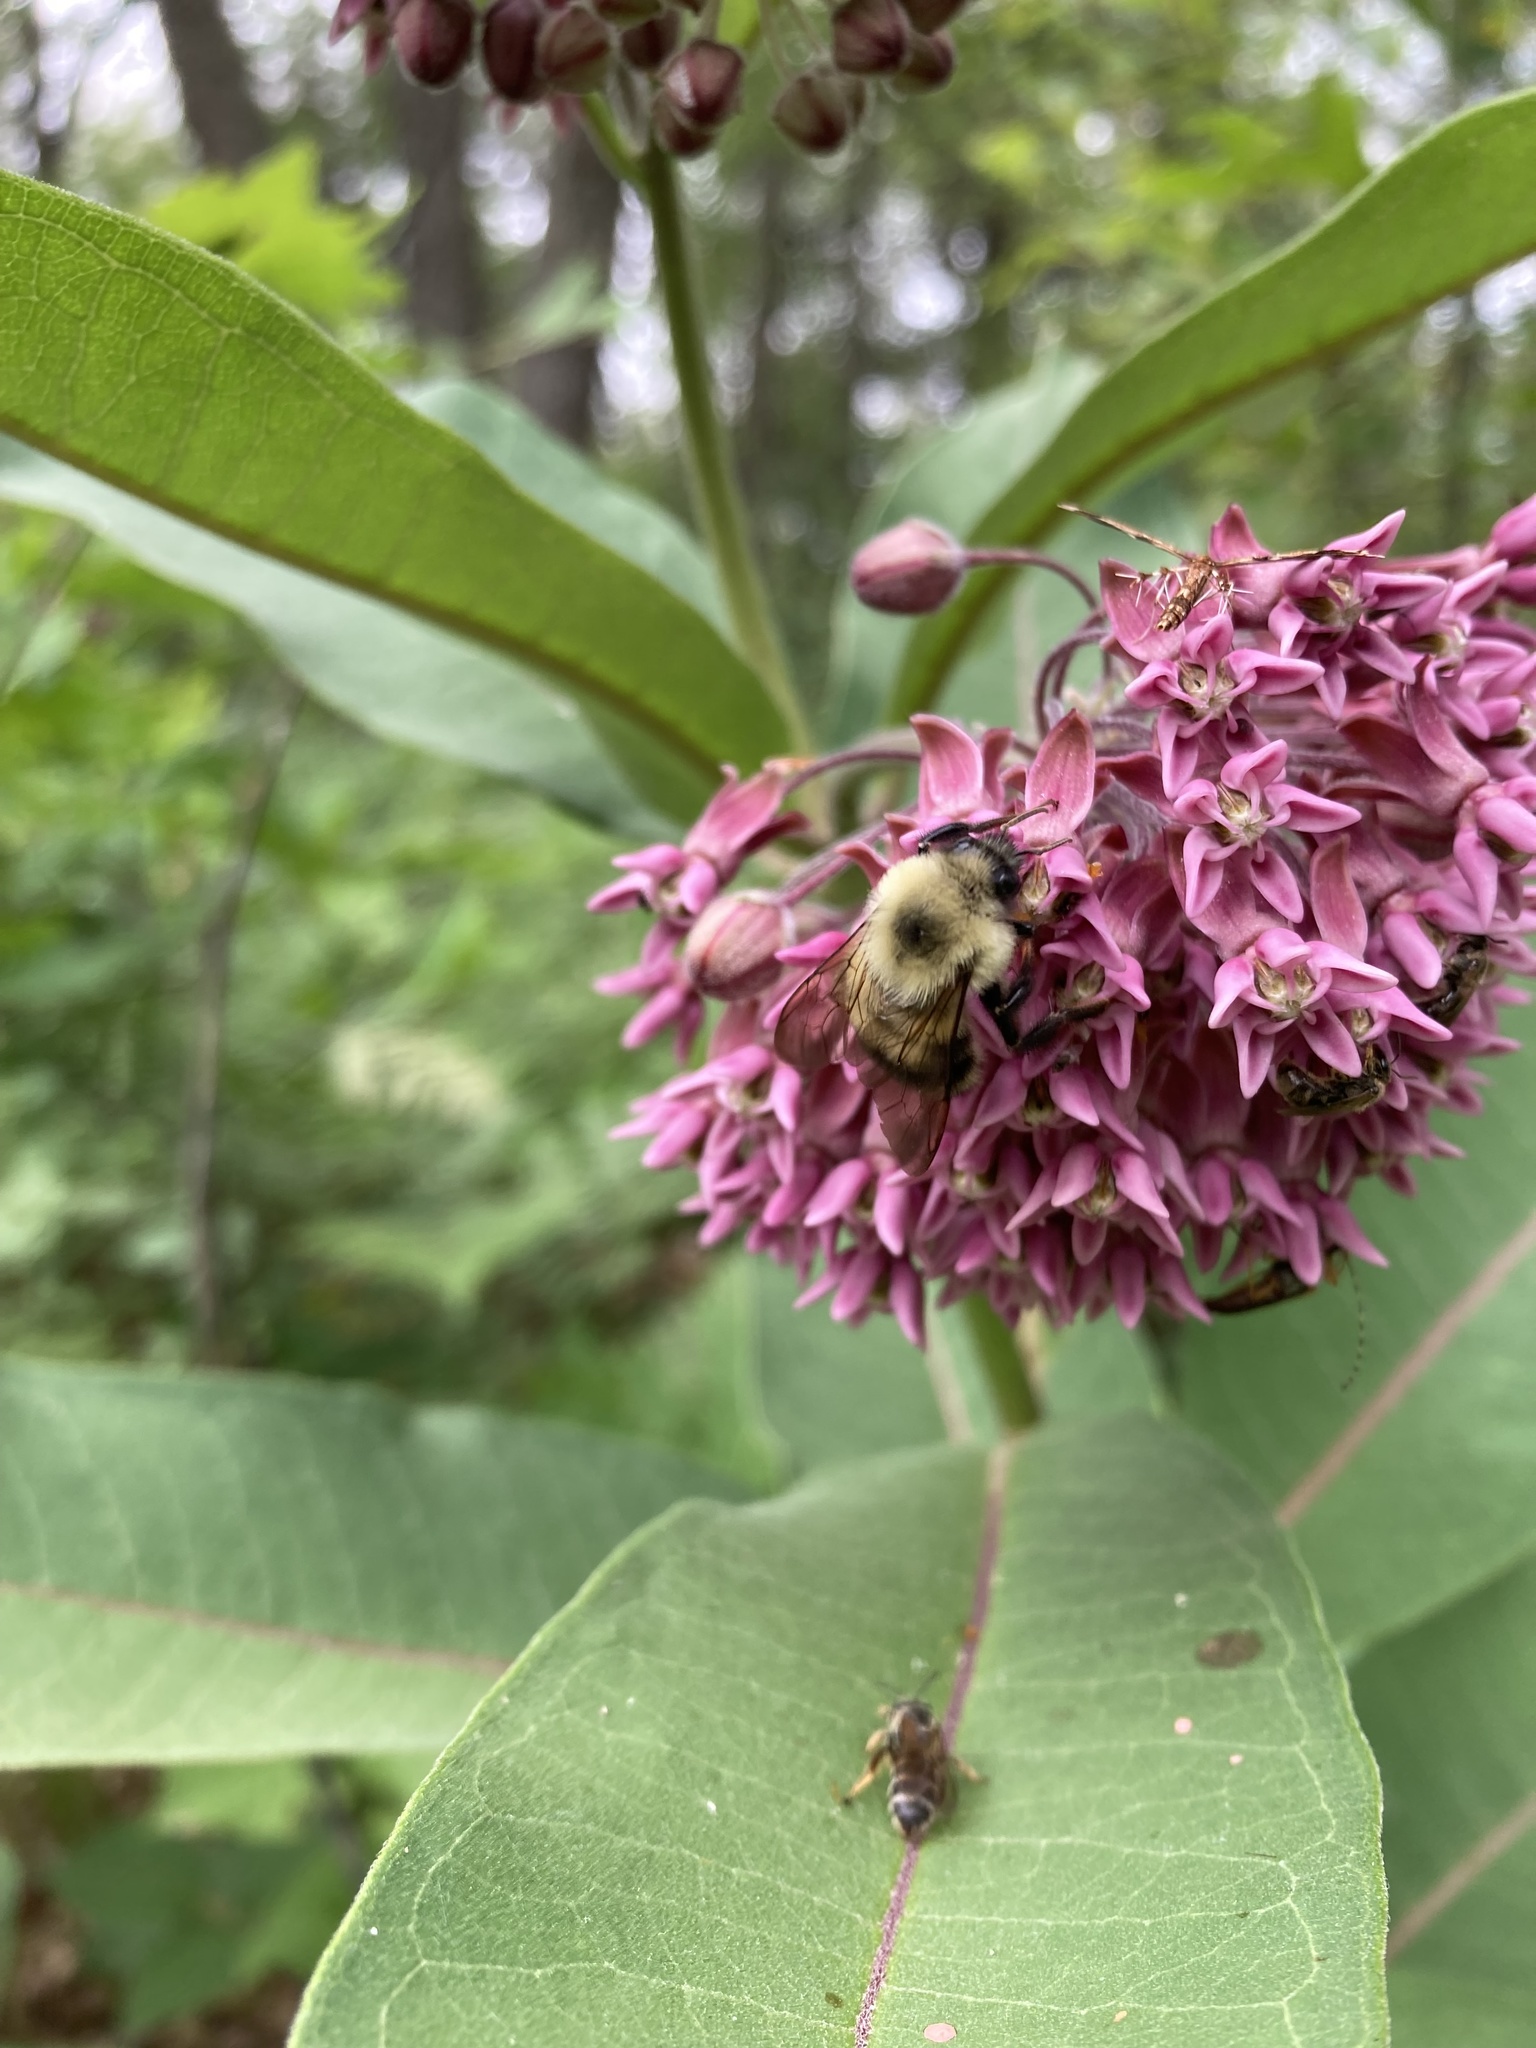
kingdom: Animalia
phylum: Arthropoda
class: Insecta
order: Hymenoptera
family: Apidae
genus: Bombus
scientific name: Bombus bimaculatus
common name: Two-spotted bumble bee
